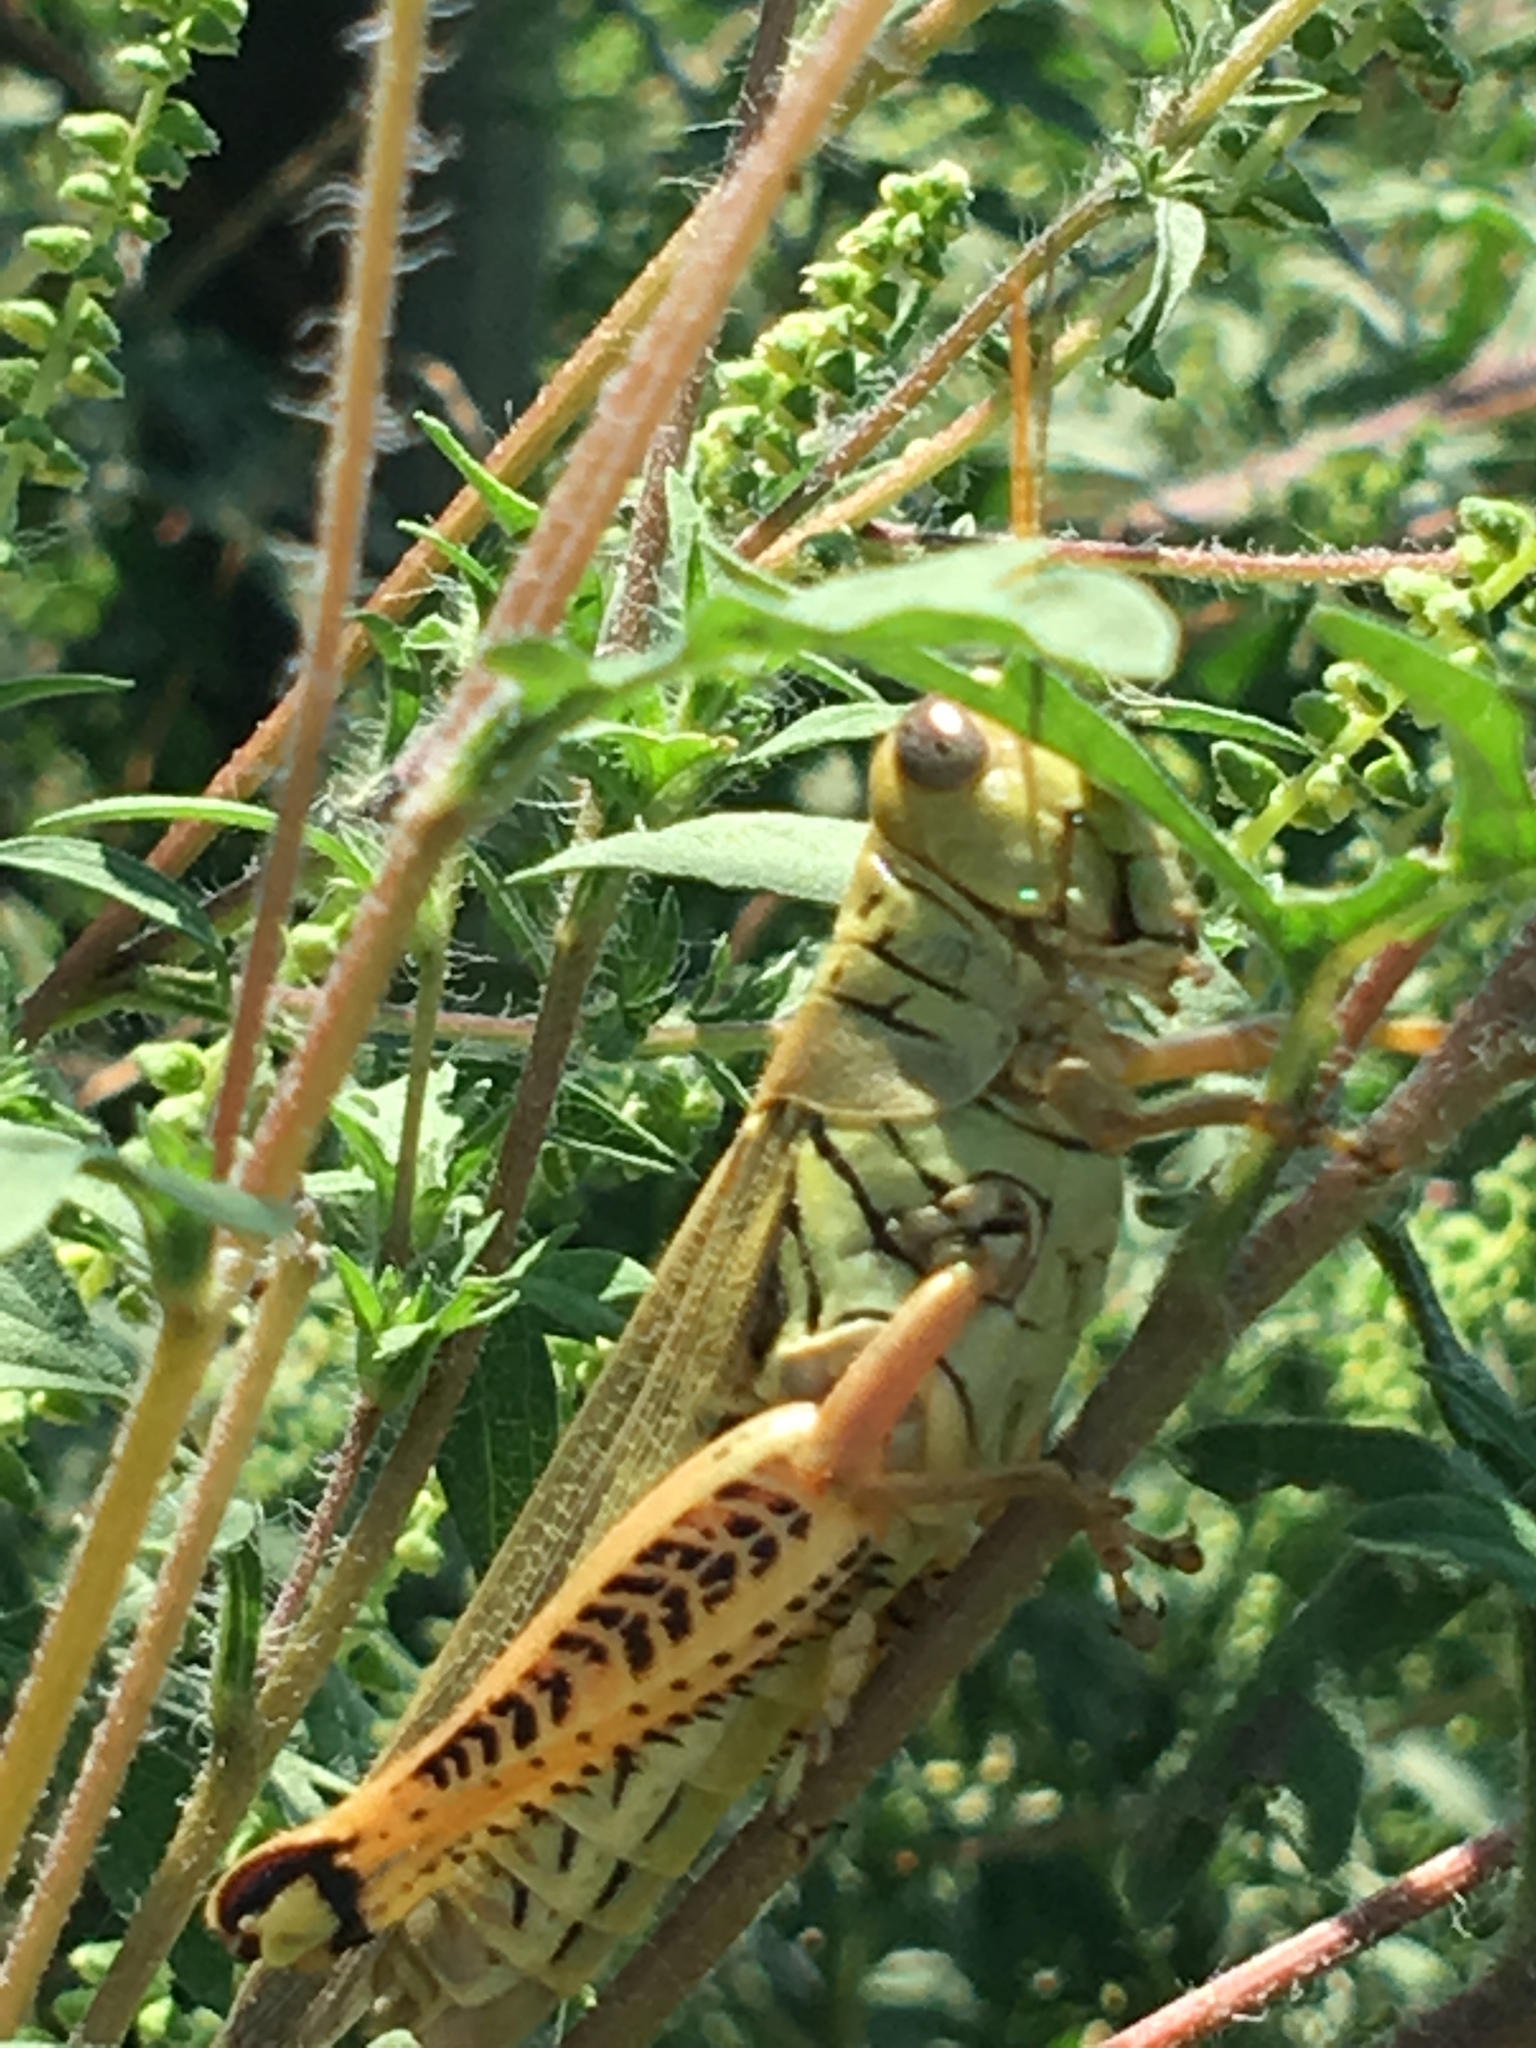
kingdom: Animalia
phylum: Arthropoda
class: Insecta
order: Orthoptera
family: Acrididae
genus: Melanoplus
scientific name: Melanoplus differentialis
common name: Differential grasshopper
